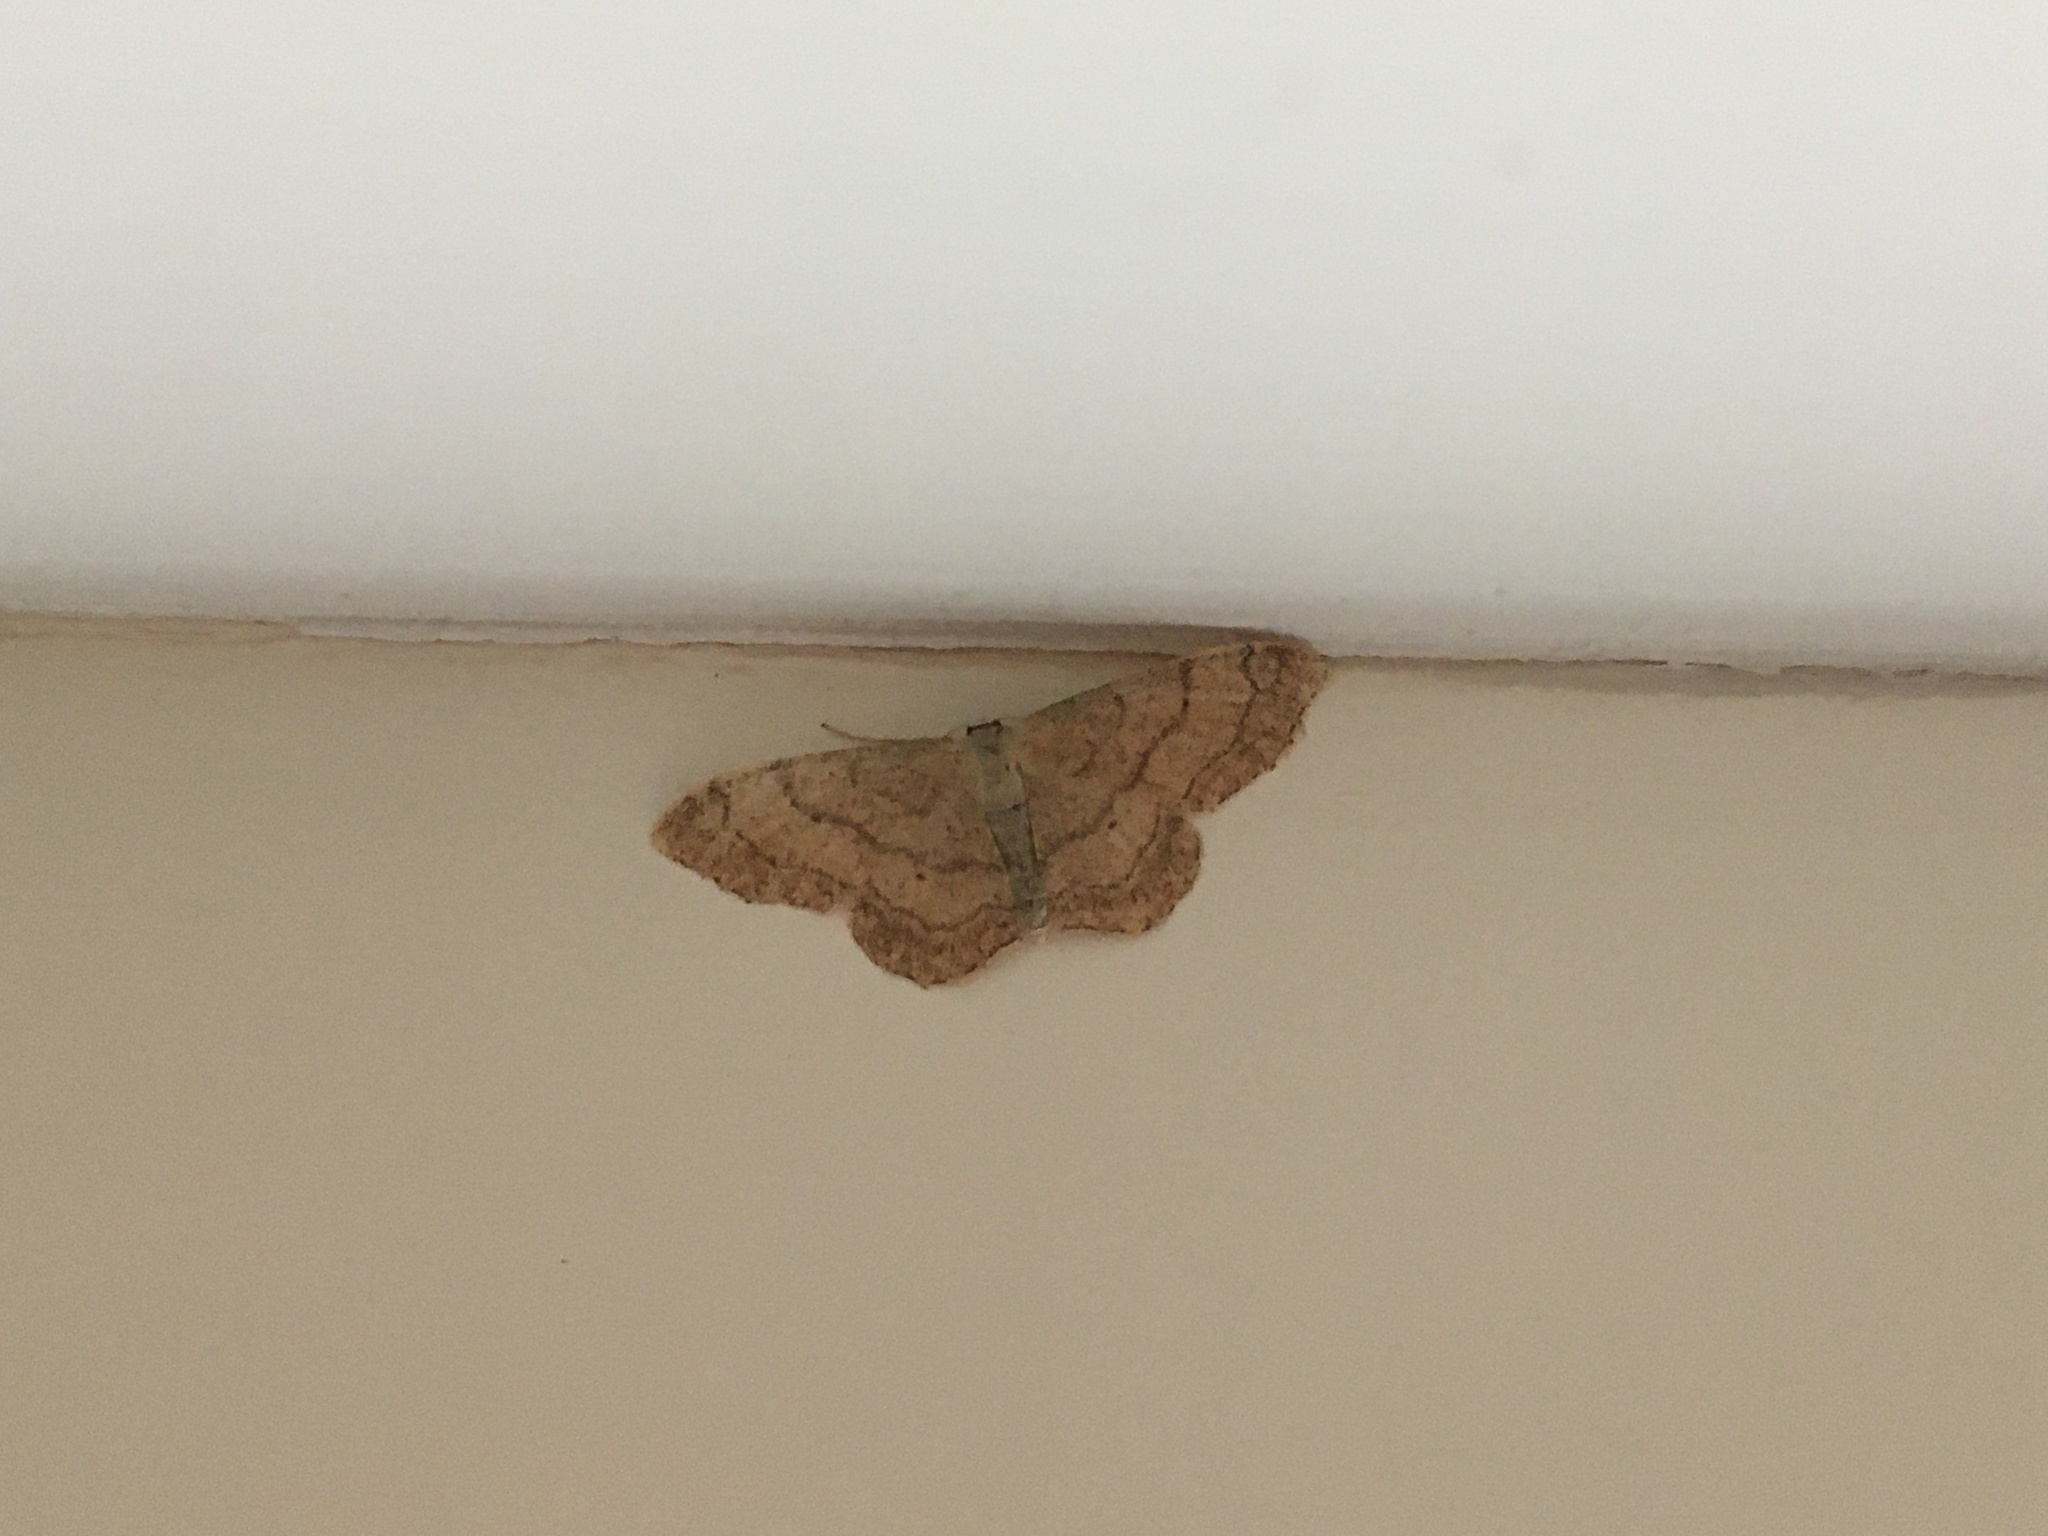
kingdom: Animalia
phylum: Arthropoda
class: Insecta
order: Lepidoptera
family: Geometridae
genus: Idaea
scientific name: Idaea aversata
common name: Riband wave
